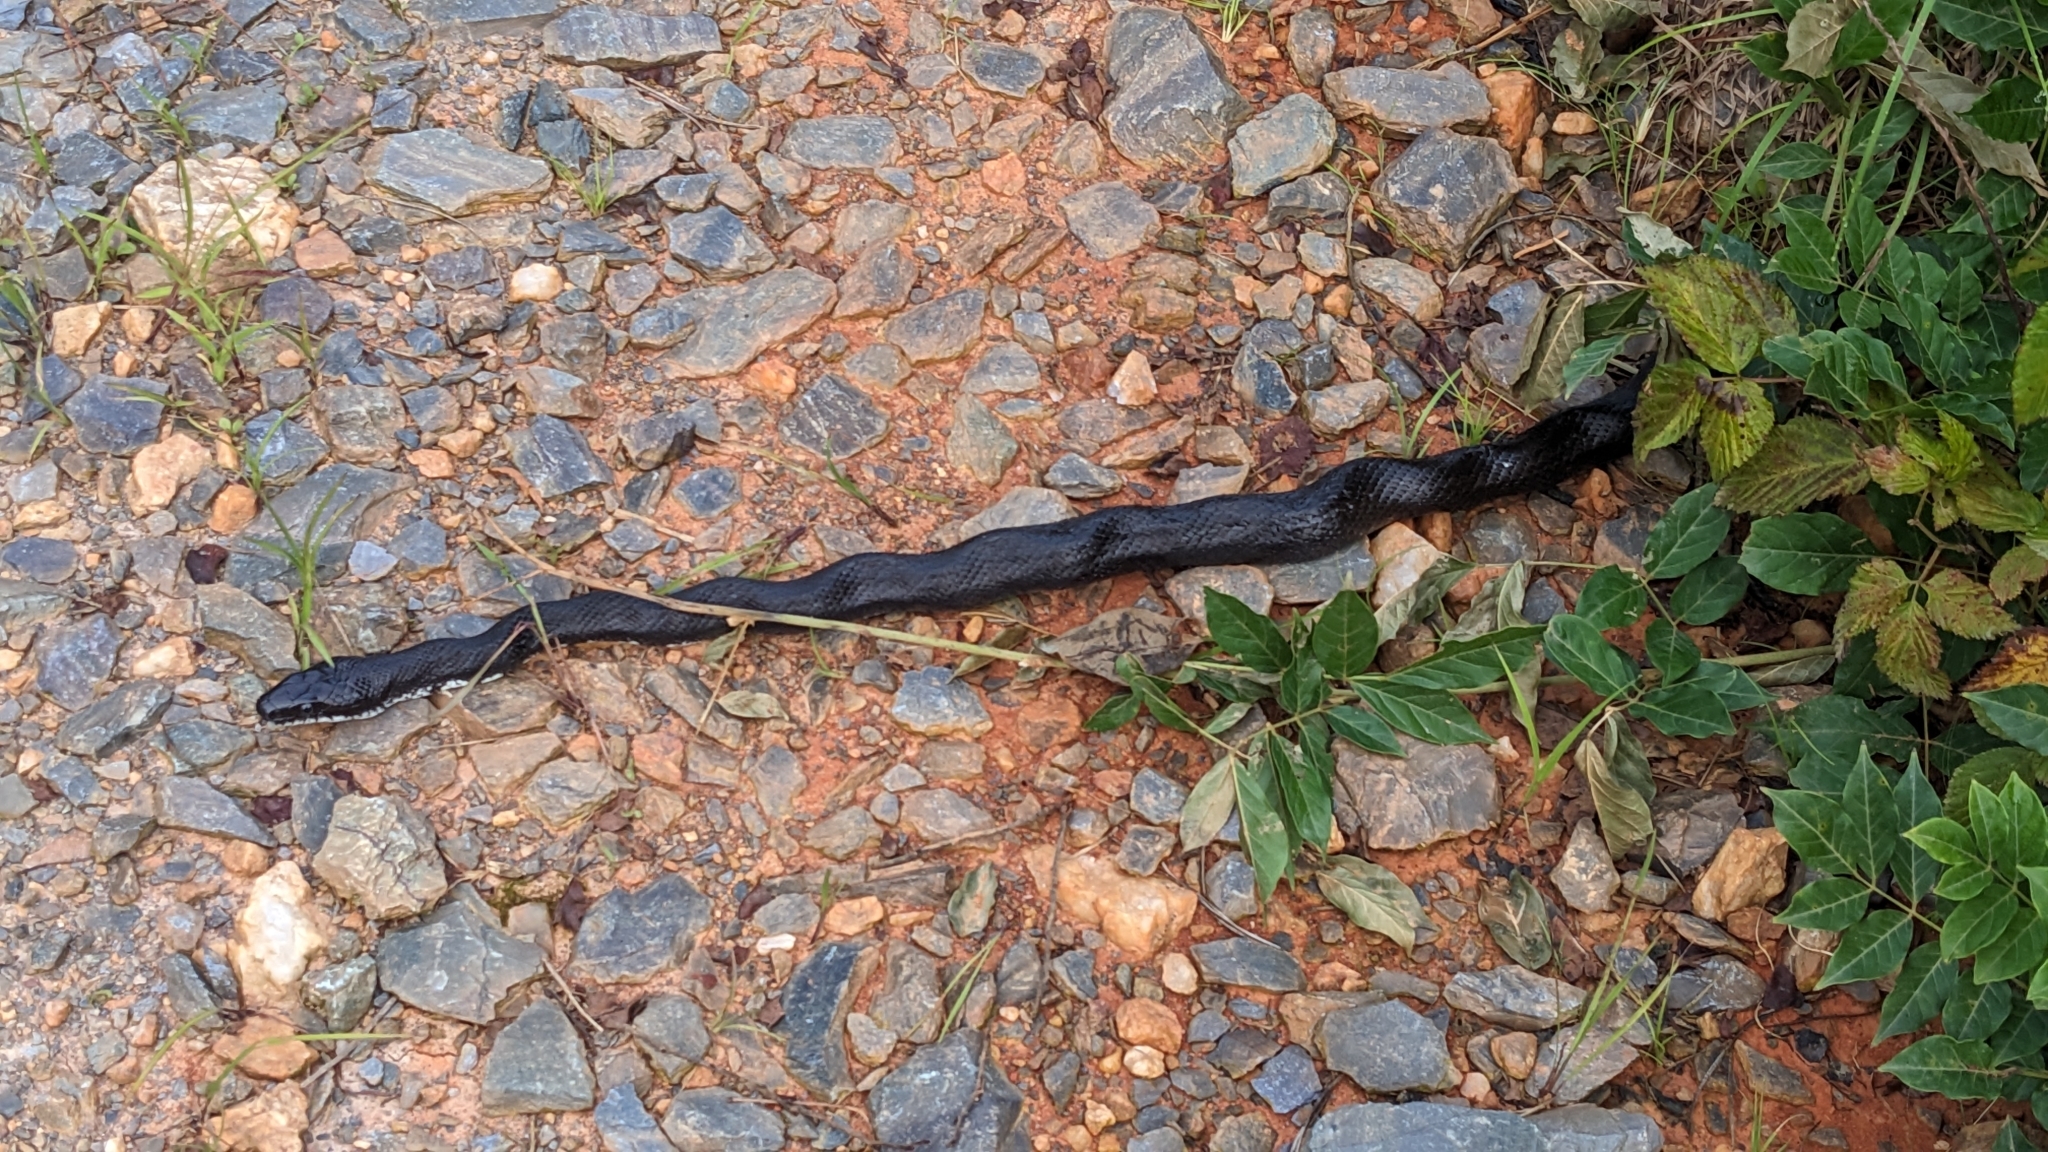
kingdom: Animalia
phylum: Chordata
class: Squamata
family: Colubridae
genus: Pantherophis
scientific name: Pantherophis
